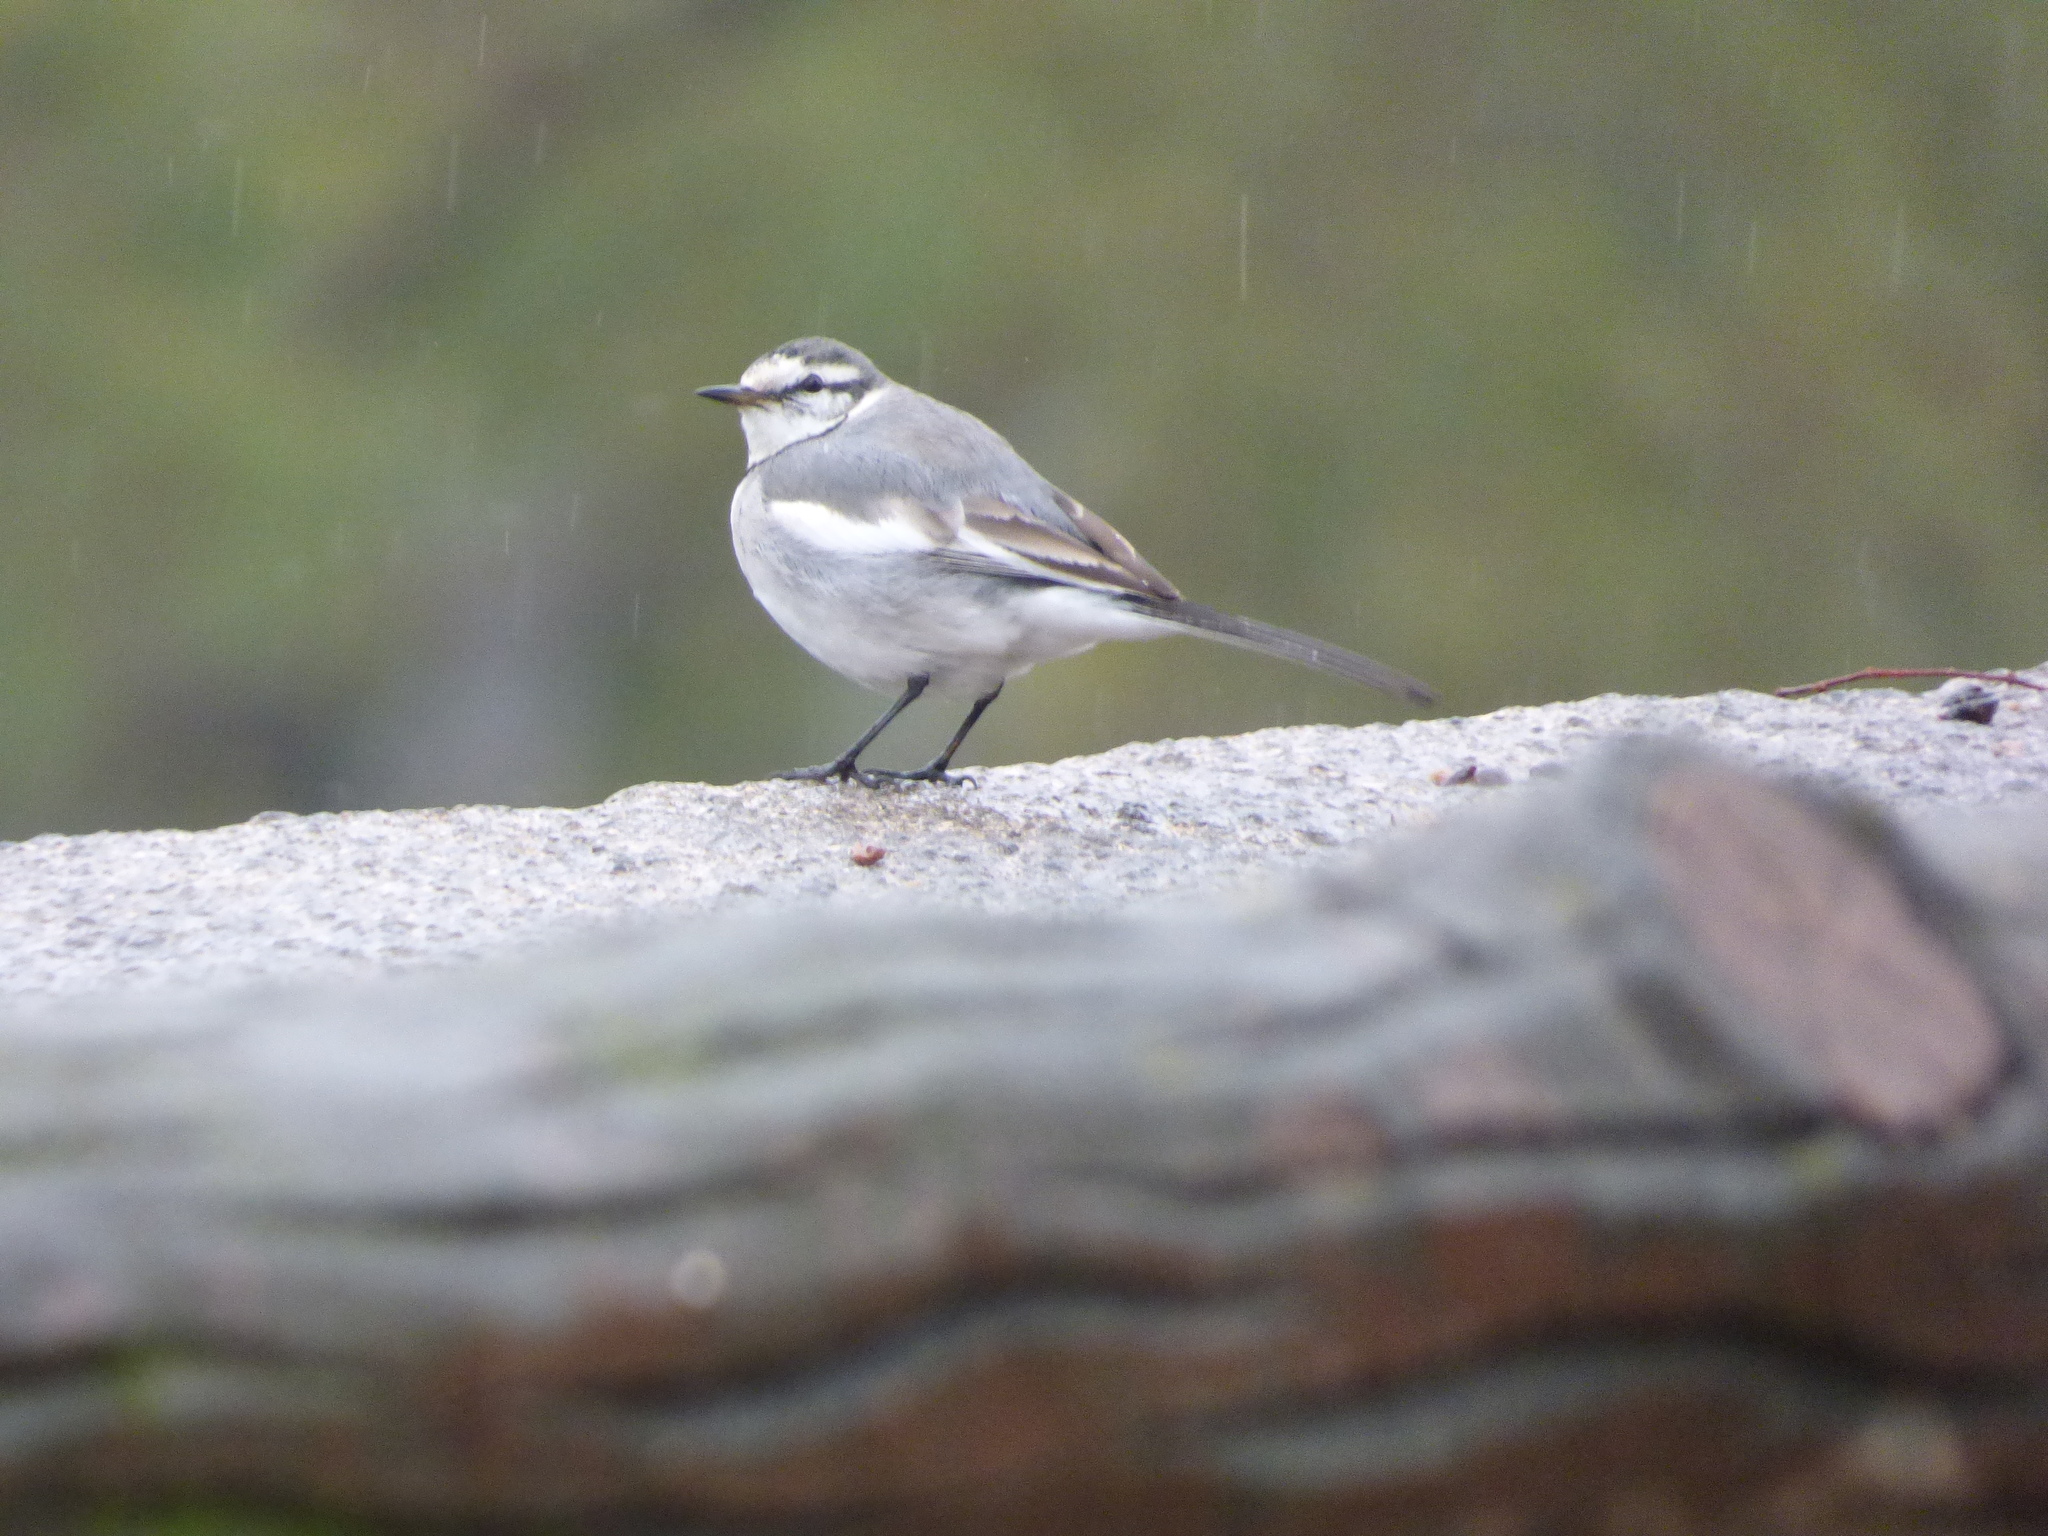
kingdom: Animalia
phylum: Chordata
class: Aves
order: Passeriformes
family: Motacillidae
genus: Motacilla
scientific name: Motacilla alba
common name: White wagtail
